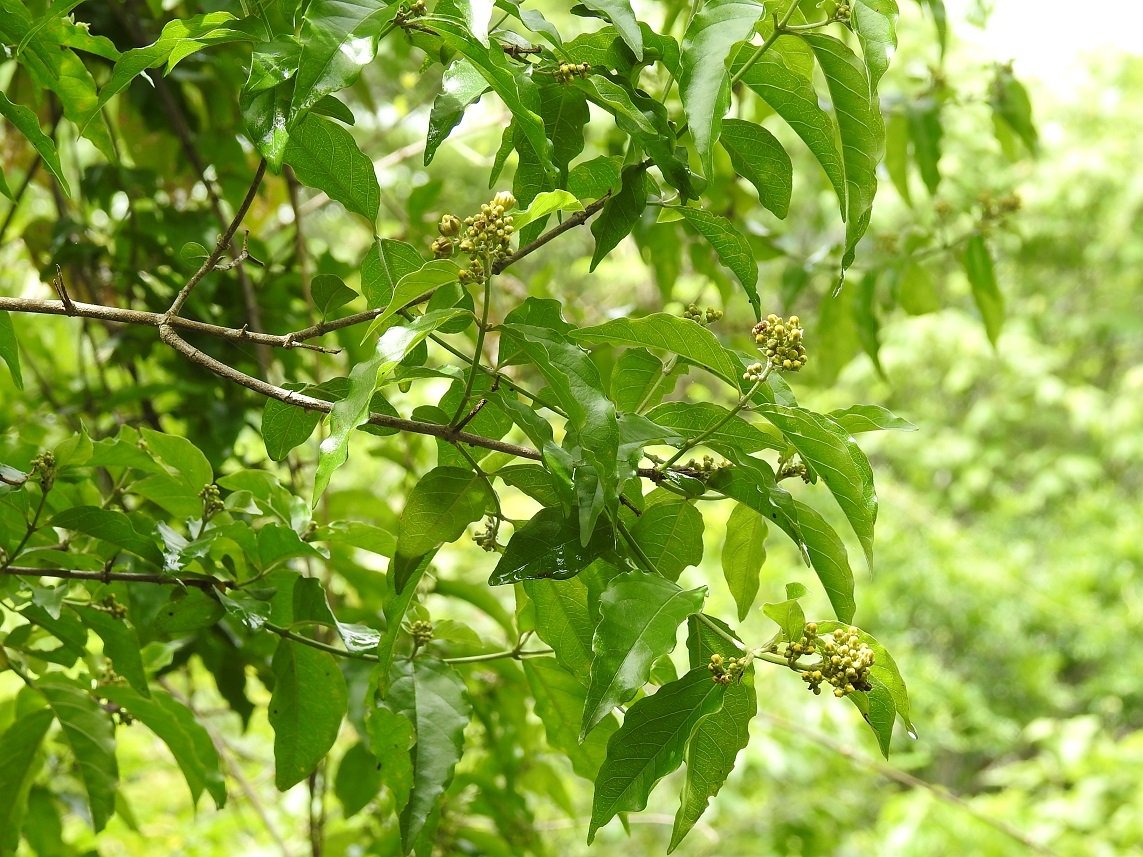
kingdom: Plantae
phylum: Tracheophyta
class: Magnoliopsida
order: Malpighiales
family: Malpighiaceae
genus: Tetrapterys
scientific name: Tetrapterys schiedeana
